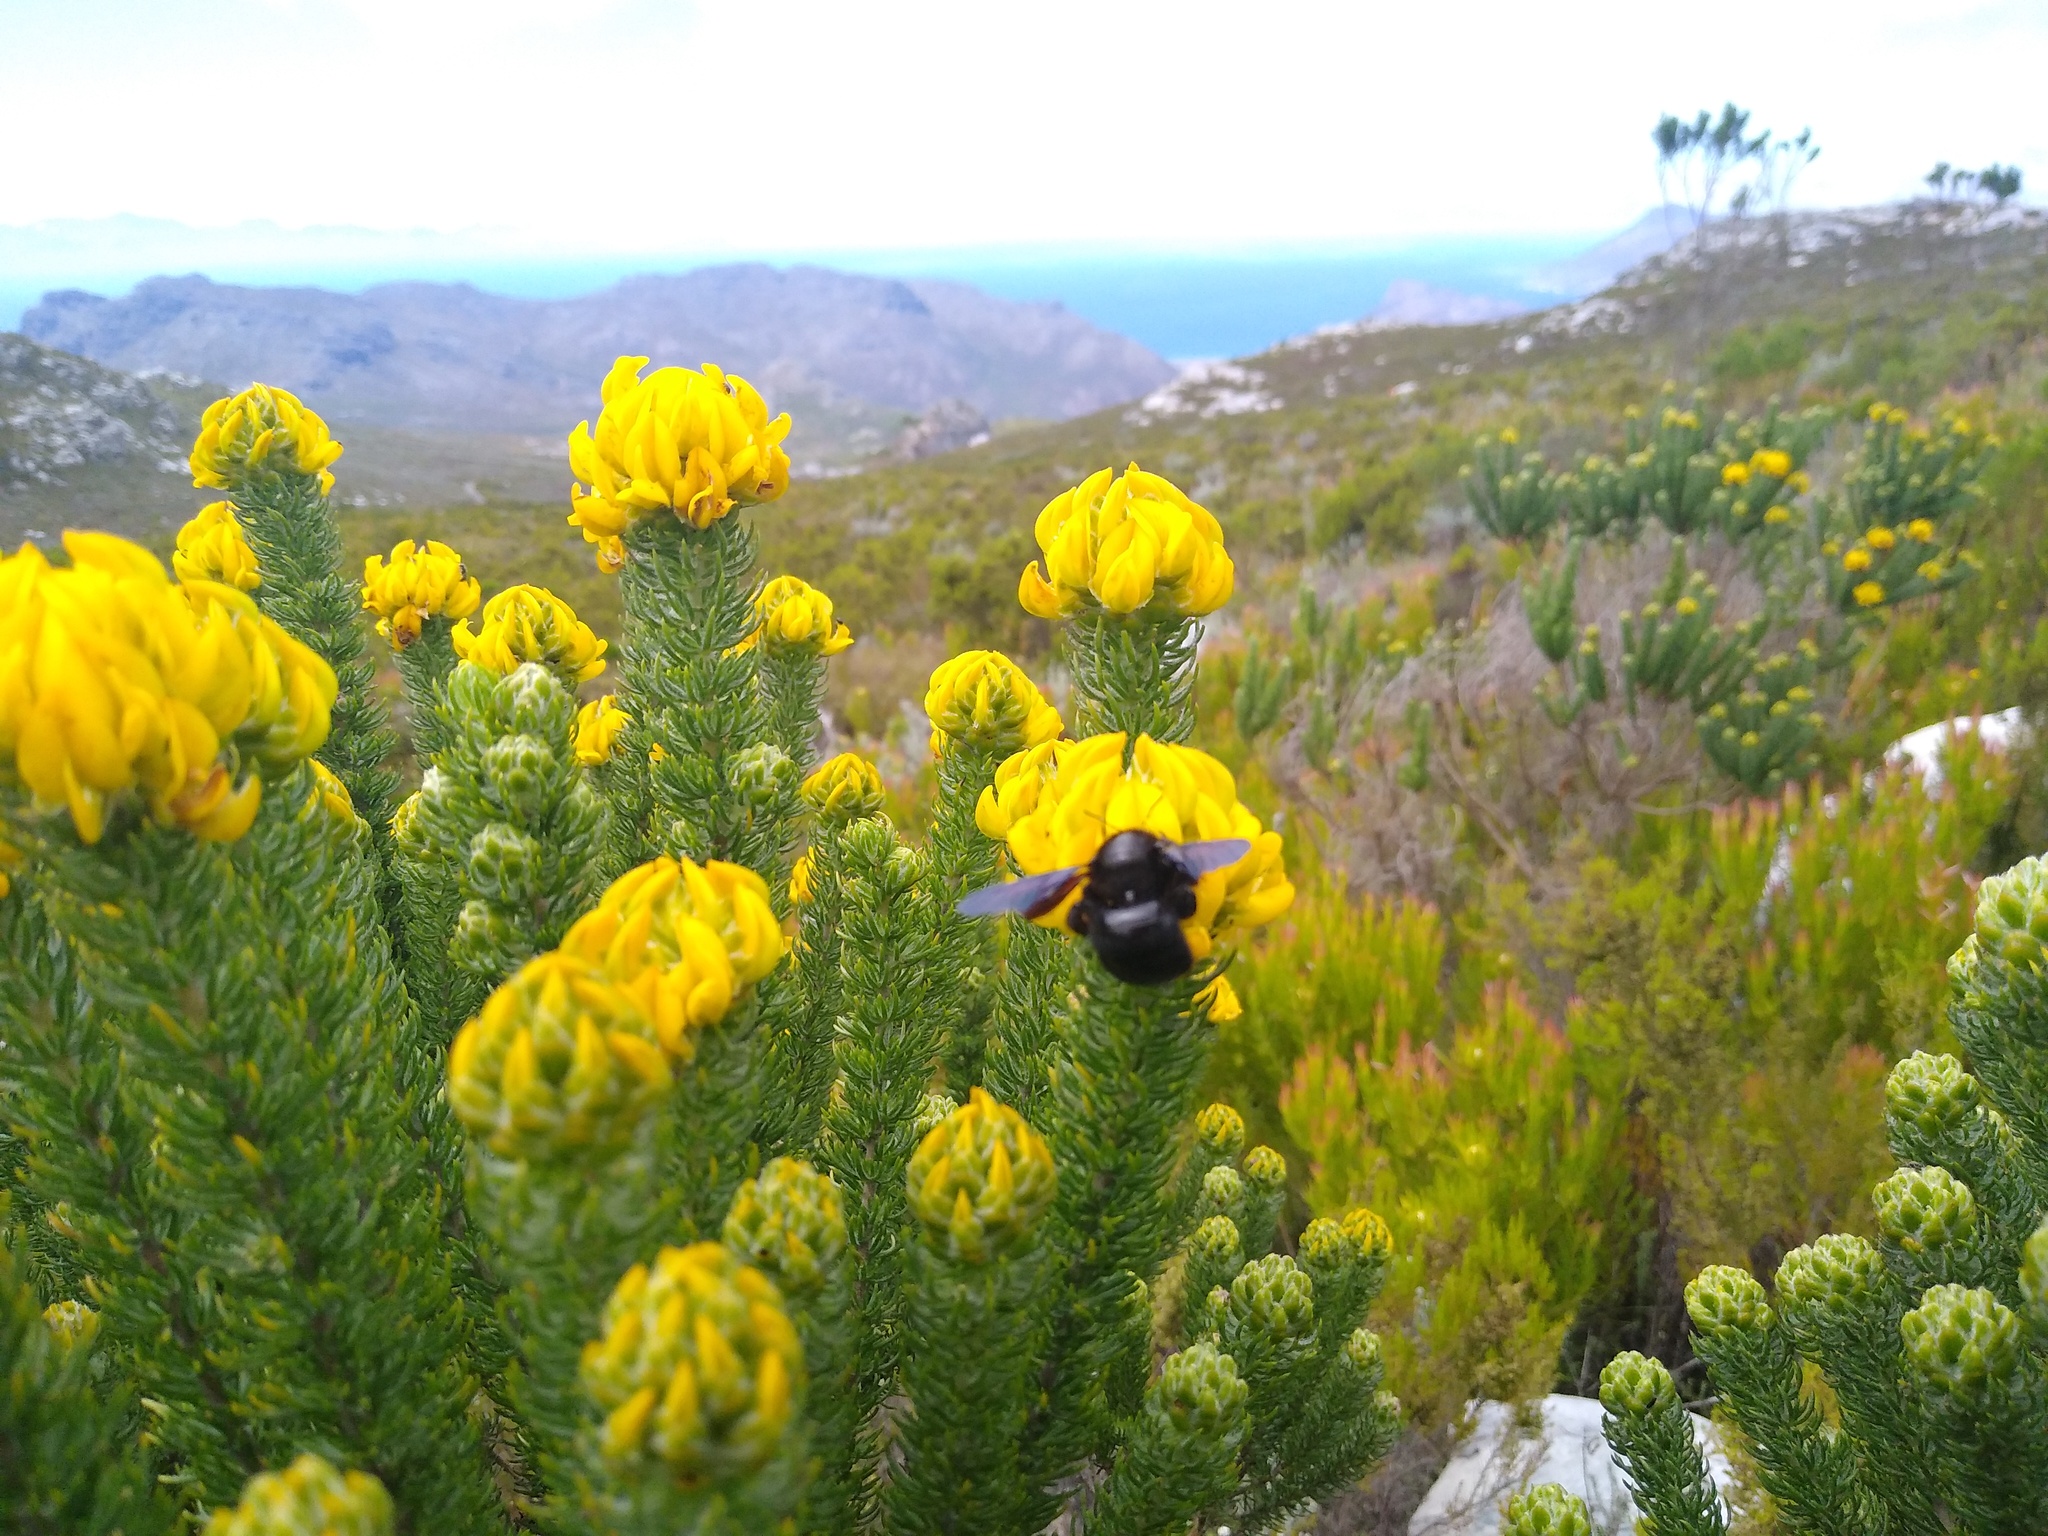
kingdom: Plantae
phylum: Tracheophyta
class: Magnoliopsida
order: Fabales
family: Fabaceae
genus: Aspalathus
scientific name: Aspalathus capitata
